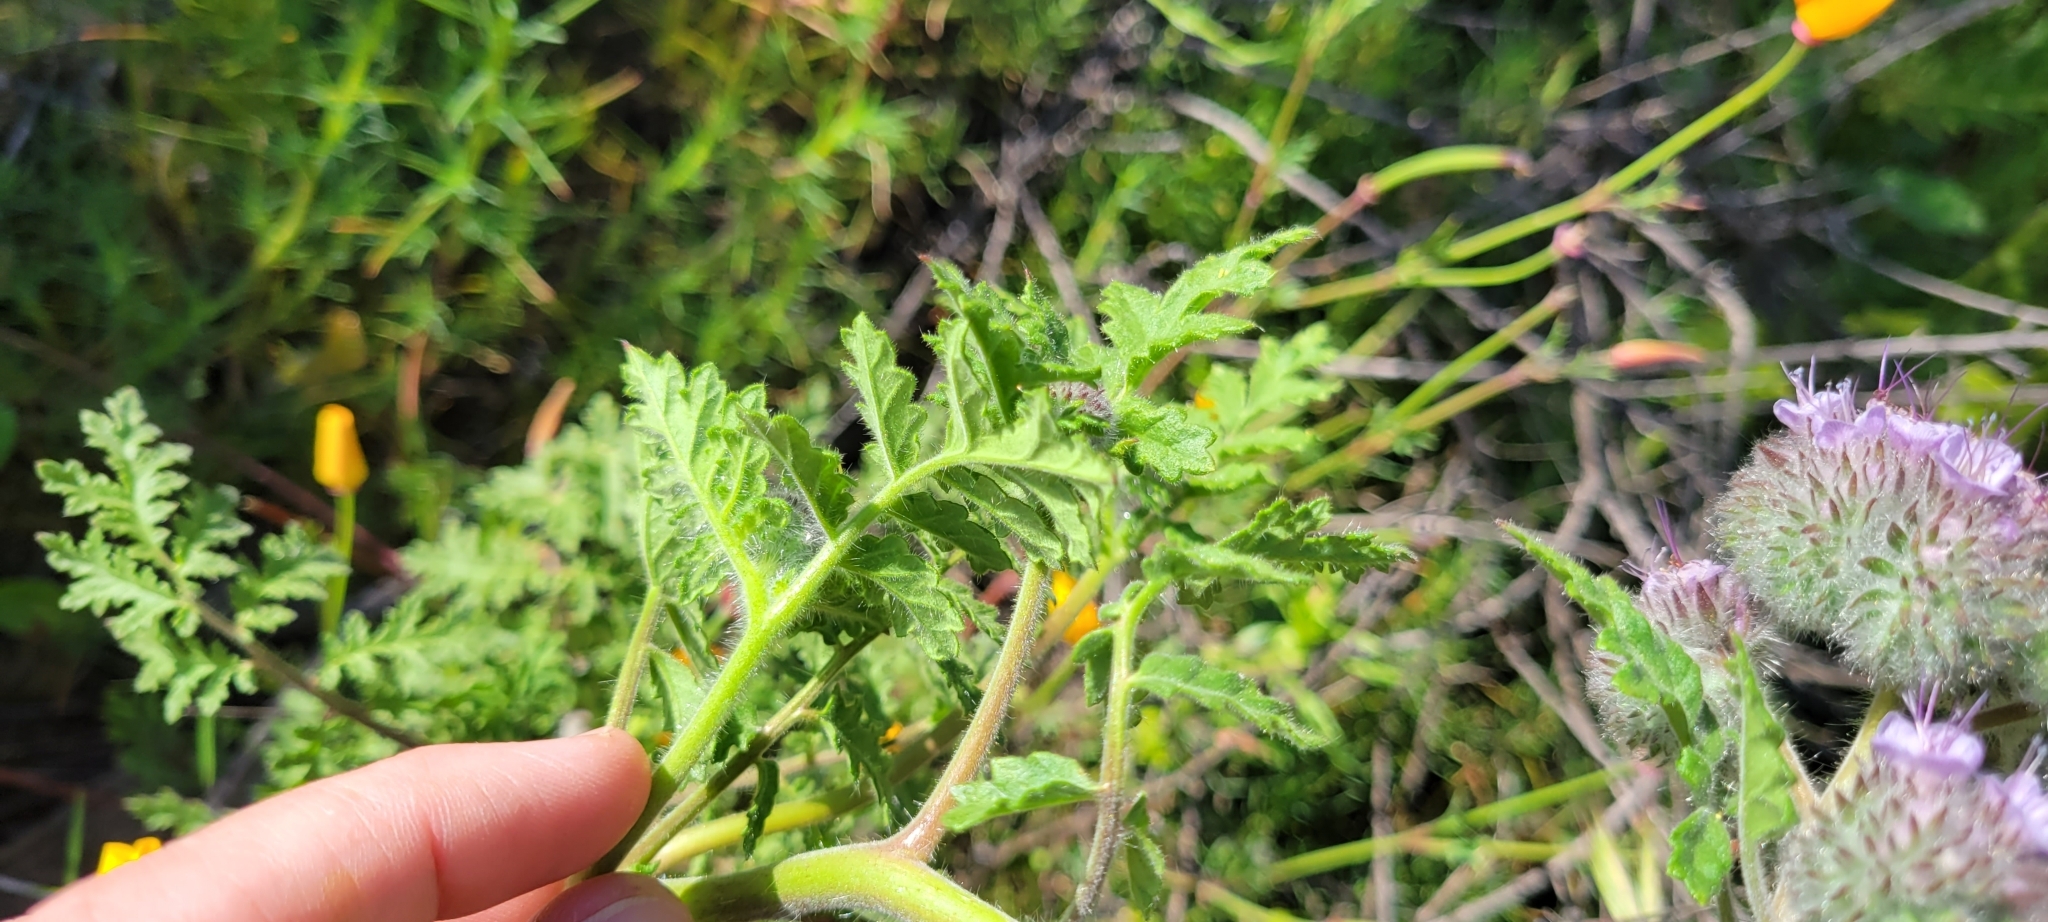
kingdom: Plantae
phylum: Tracheophyta
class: Magnoliopsida
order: Boraginales
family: Hydrophyllaceae
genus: Phacelia
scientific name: Phacelia hubbyi
